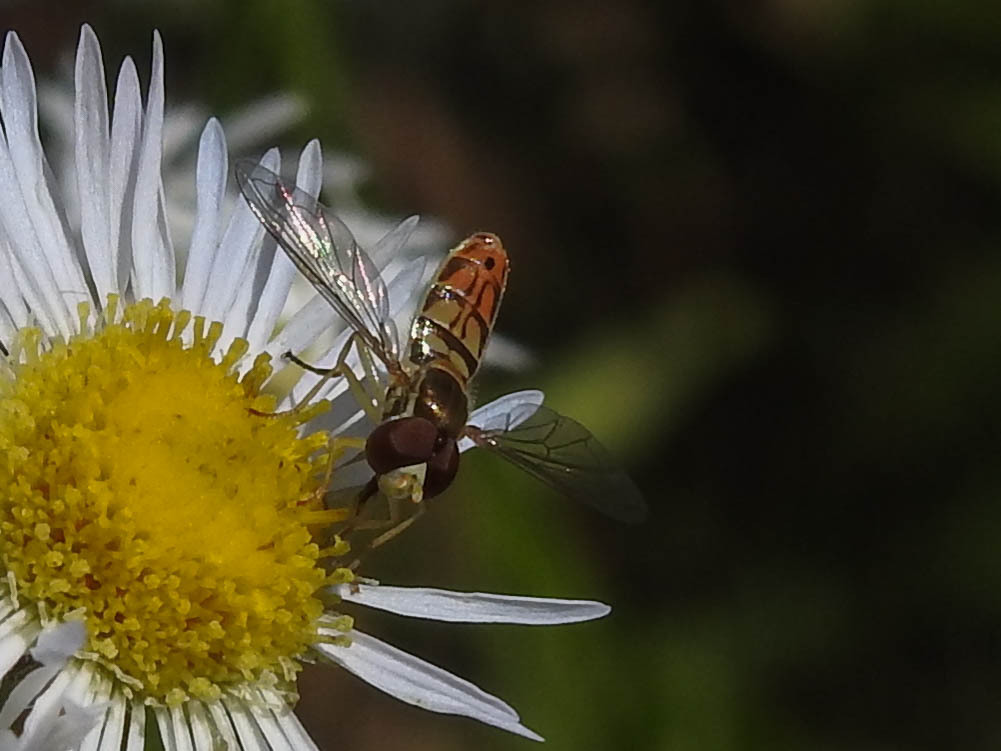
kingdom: Animalia
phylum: Arthropoda
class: Insecta
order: Diptera
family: Syrphidae
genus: Toxomerus
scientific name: Toxomerus marginatus
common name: Syrphid fly
